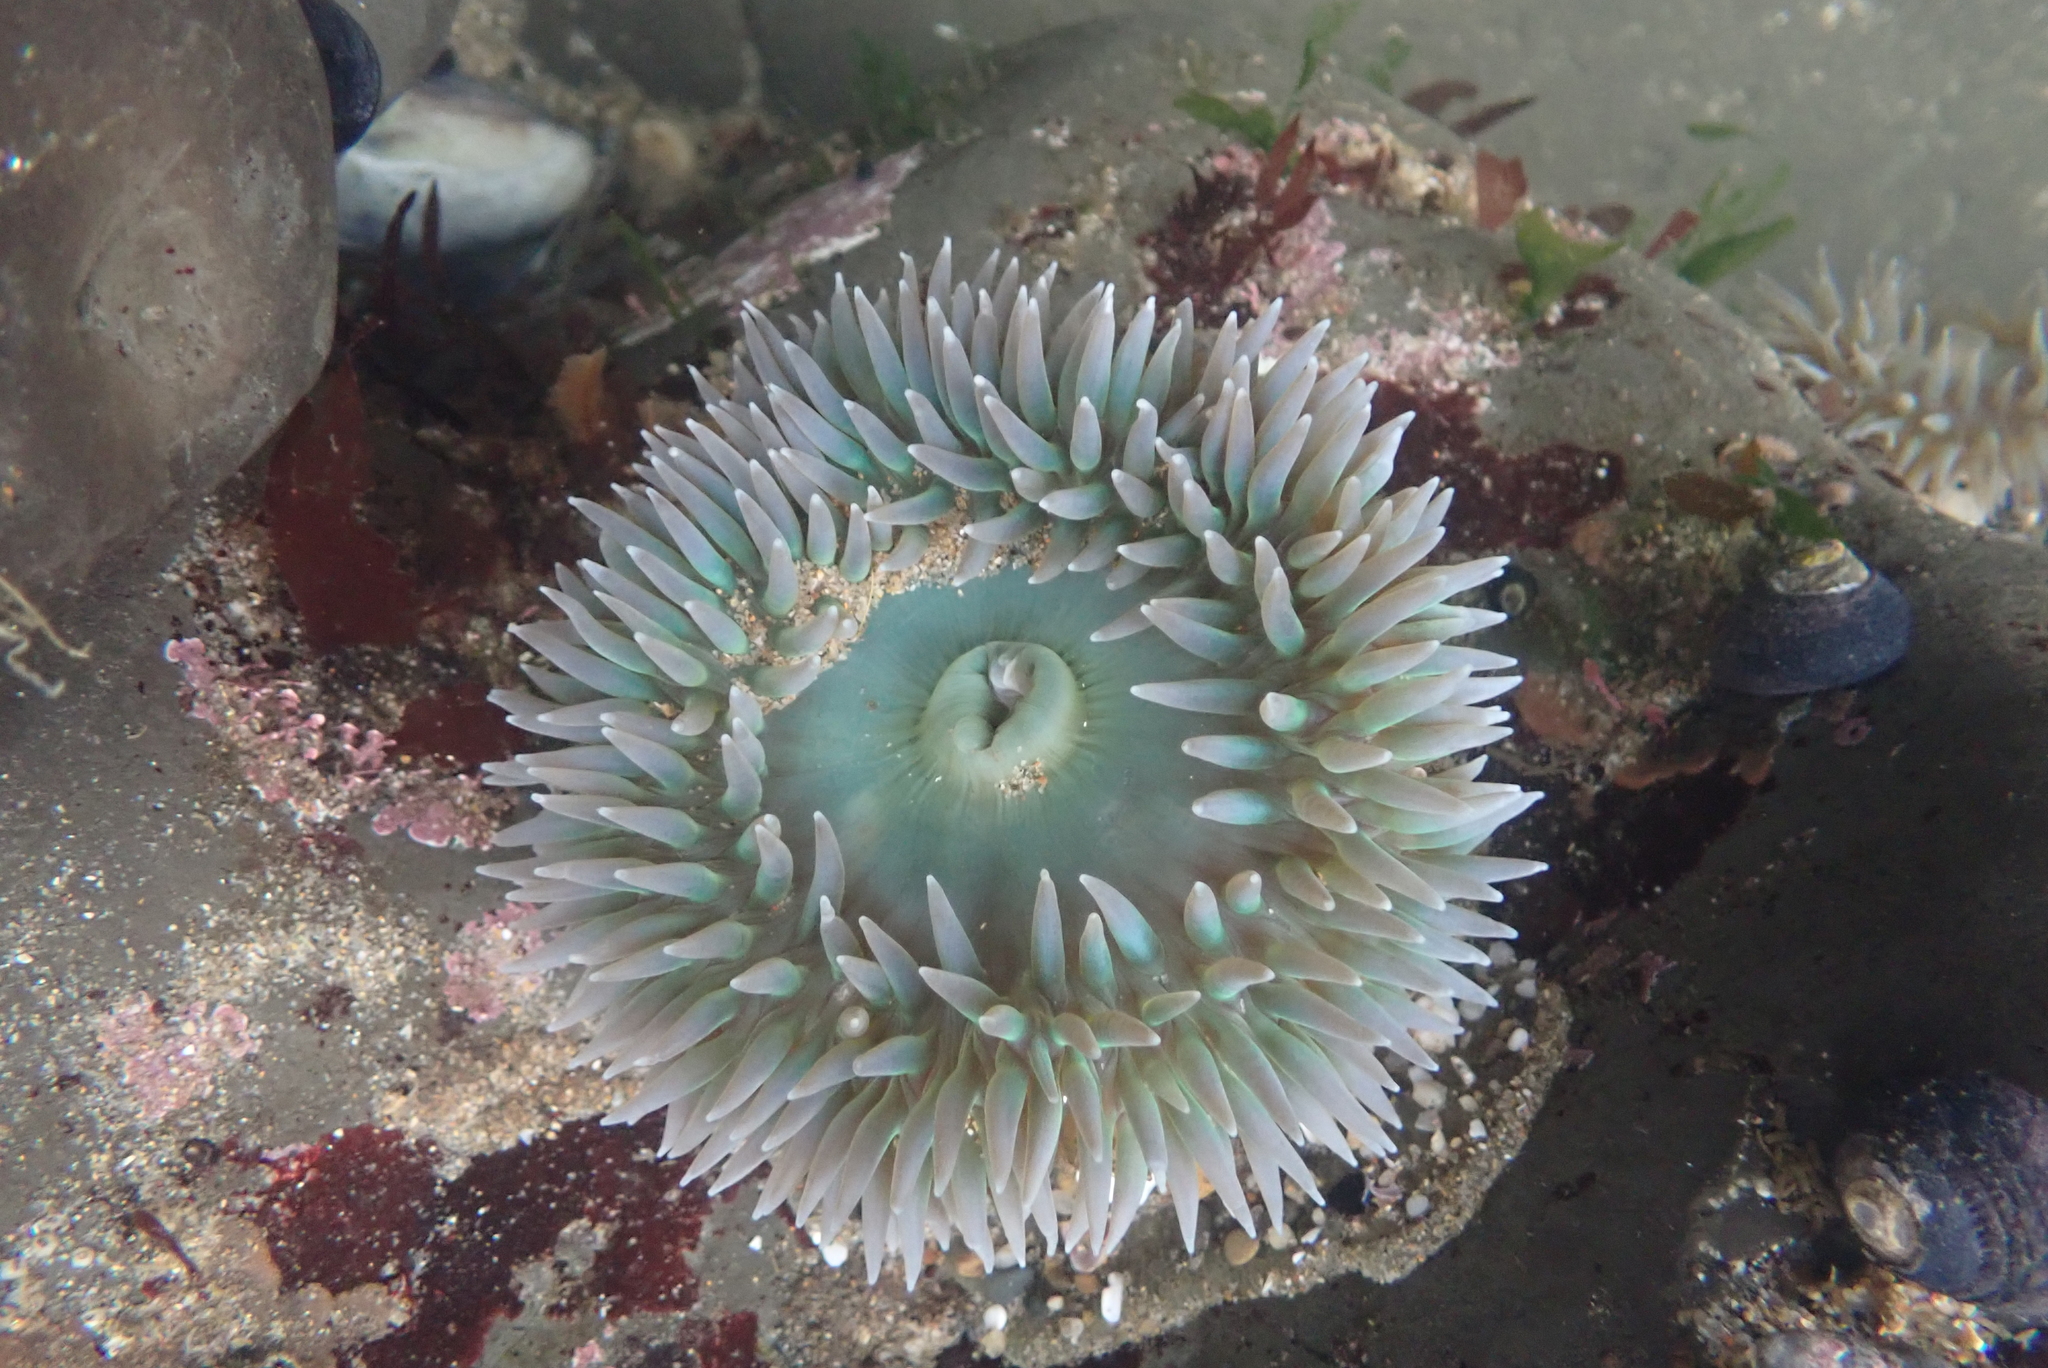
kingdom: Animalia
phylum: Cnidaria
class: Anthozoa
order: Actiniaria
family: Actiniidae
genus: Anthopleura
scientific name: Anthopleura xanthogrammica
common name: Giant green anemone
